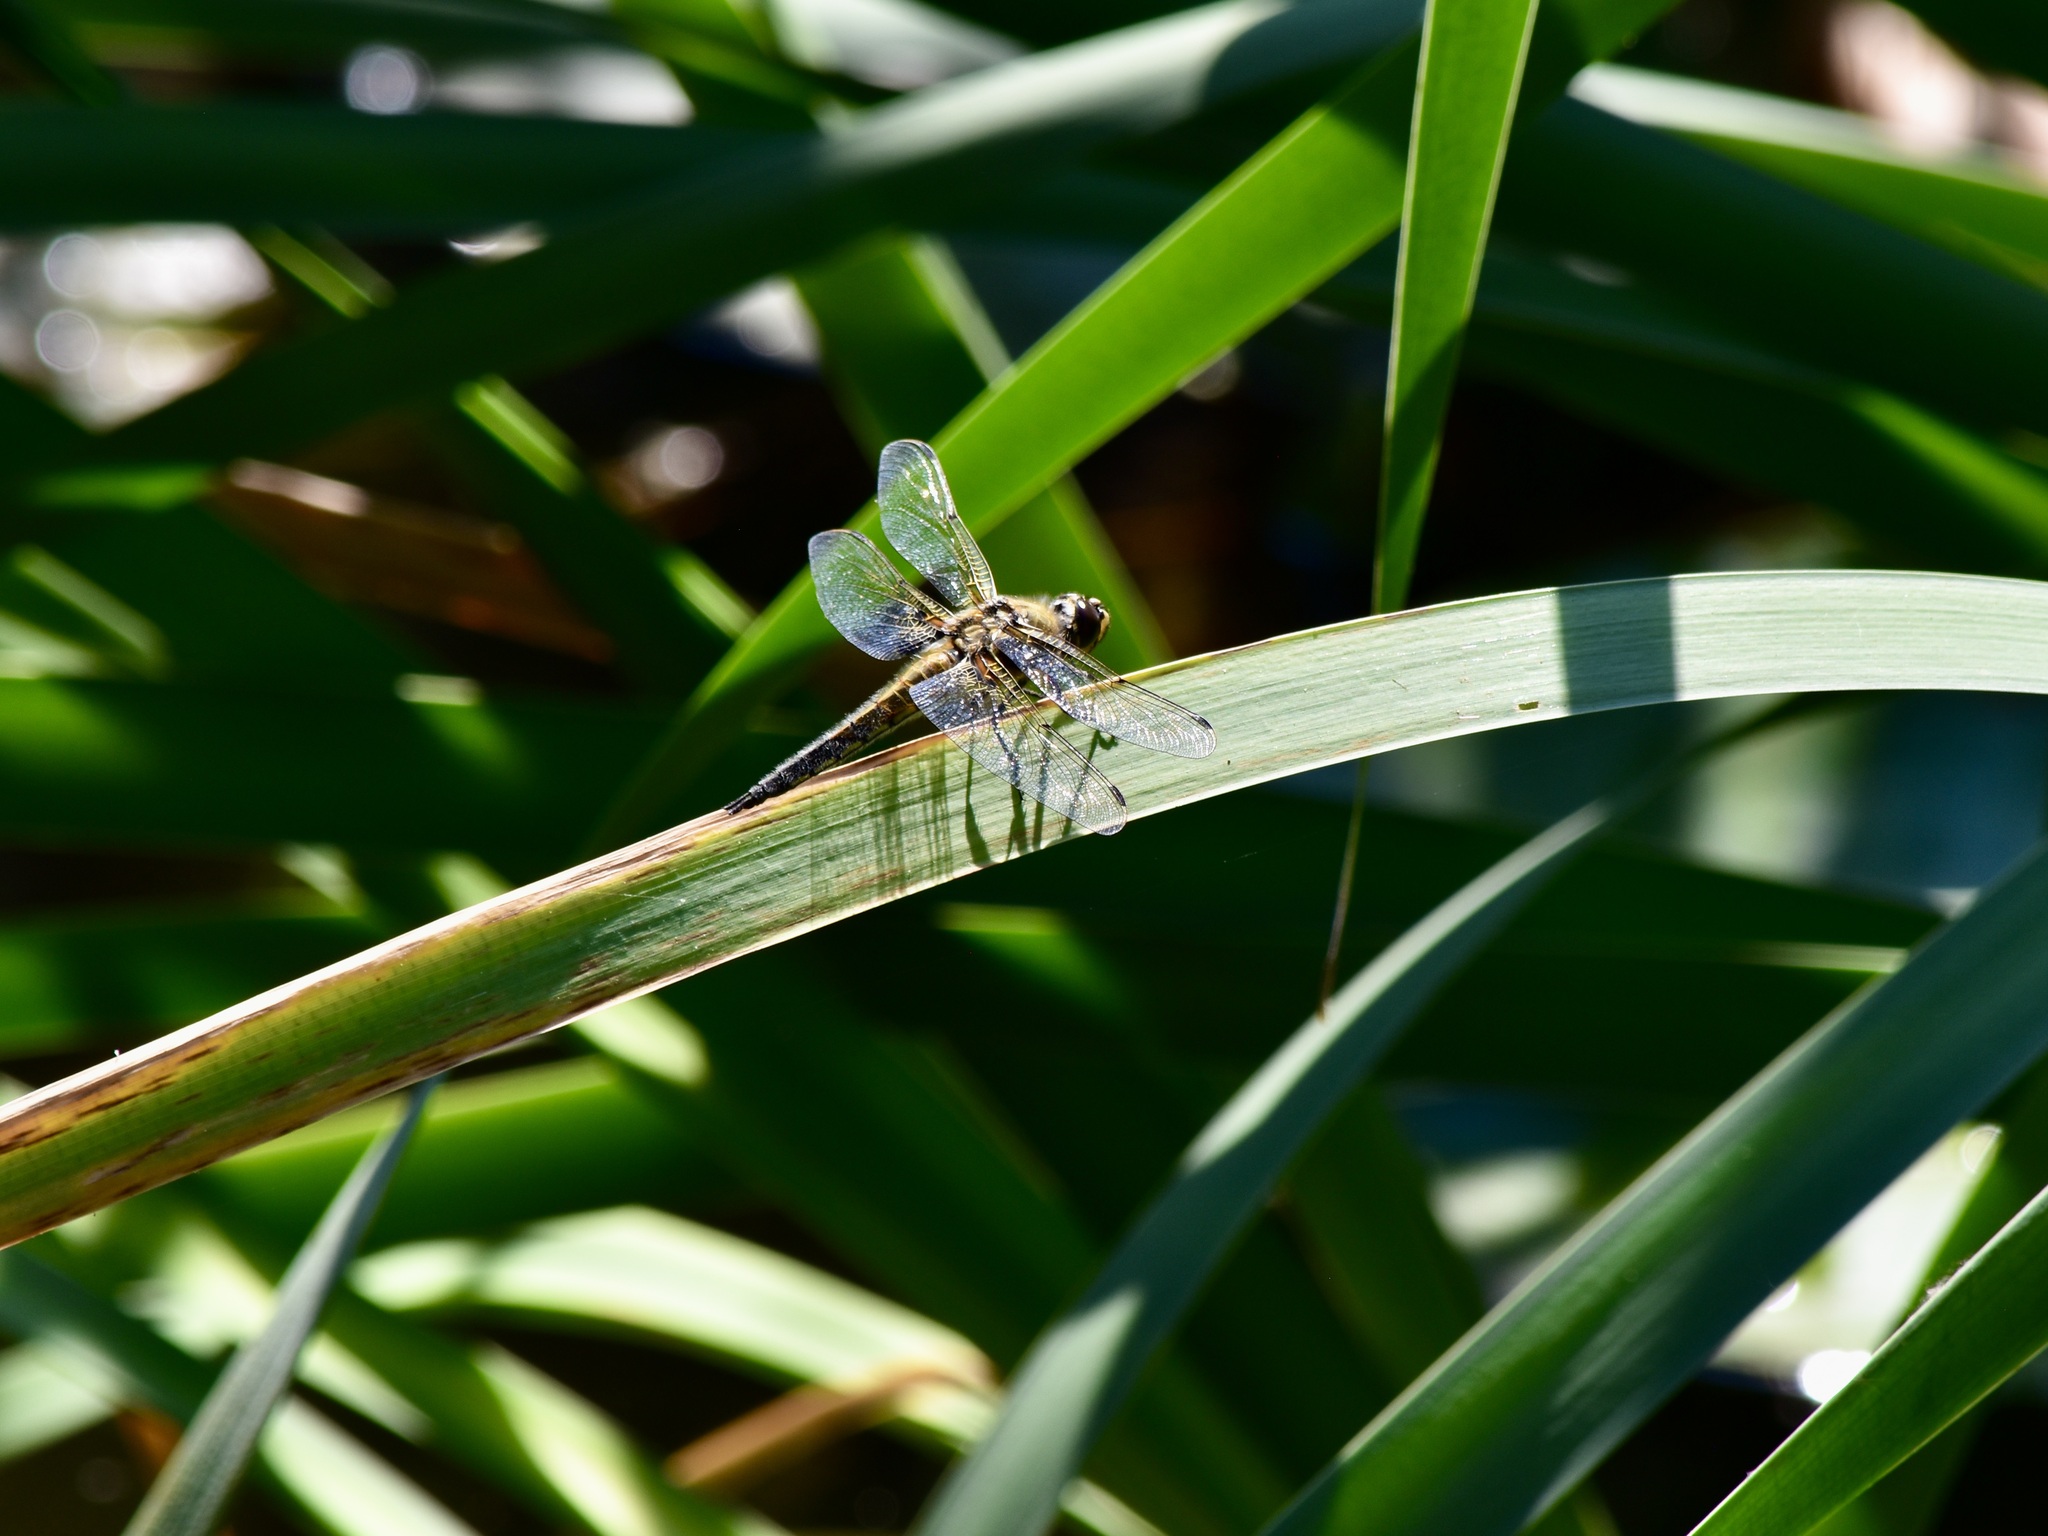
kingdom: Animalia
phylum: Arthropoda
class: Insecta
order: Odonata
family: Libellulidae
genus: Libellula
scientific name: Libellula quadrimaculata
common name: Four-spotted chaser
